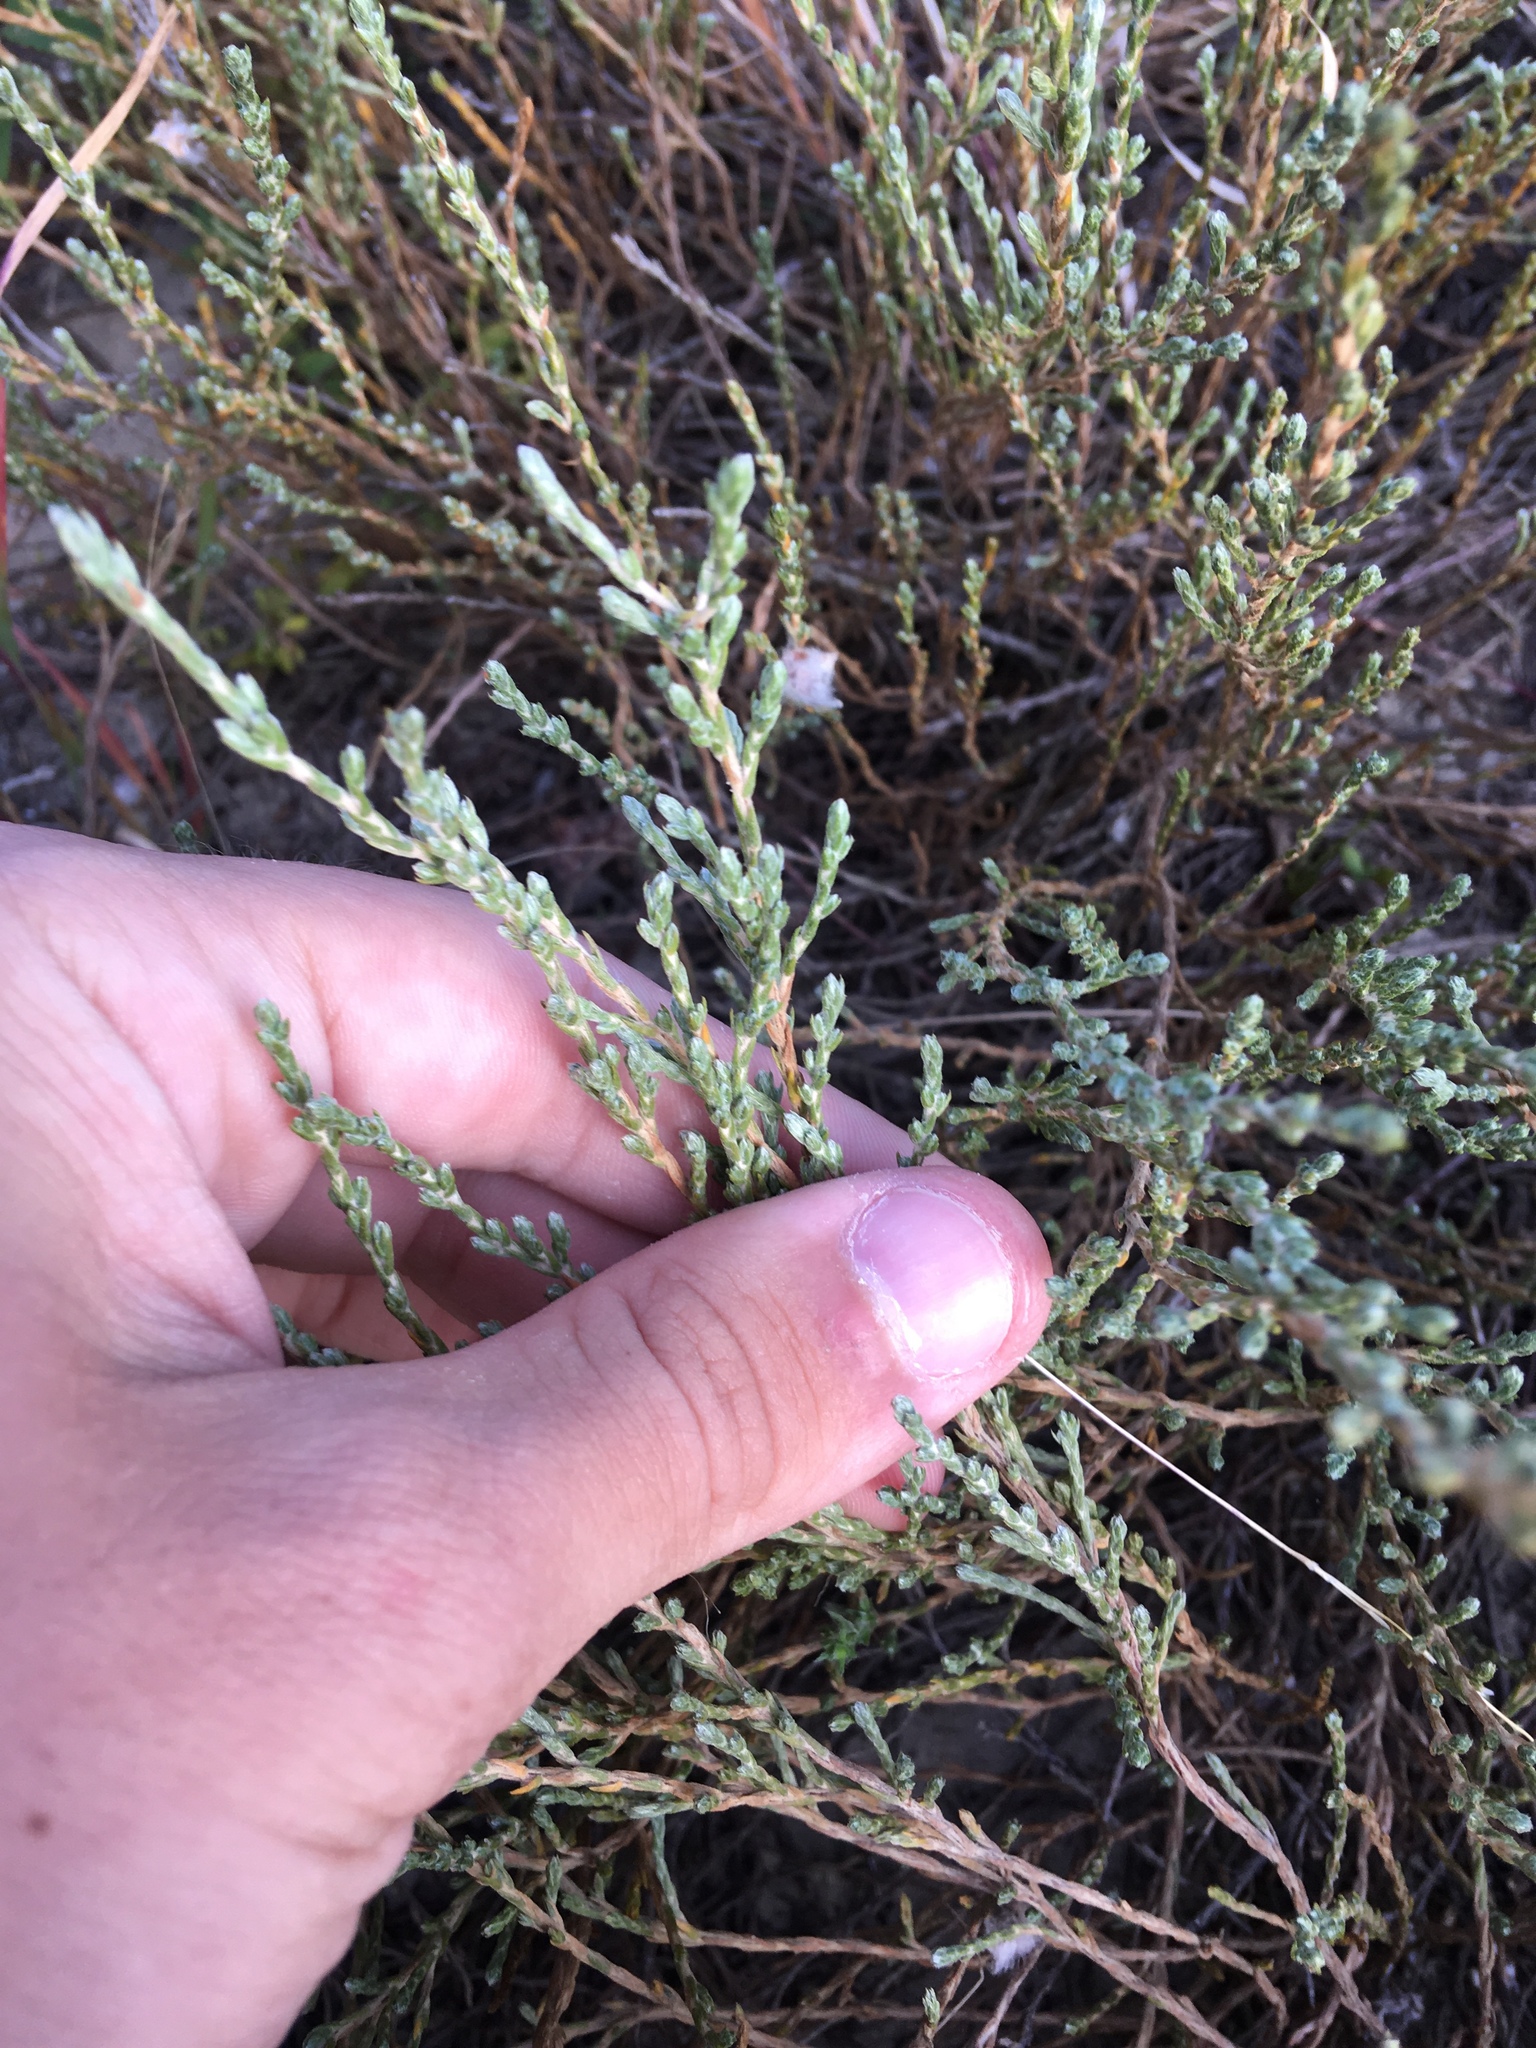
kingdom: Plantae
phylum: Tracheophyta
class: Magnoliopsida
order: Malvales
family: Cistaceae
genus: Hudsonia
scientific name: Hudsonia tomentosa
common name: Beach-heath
